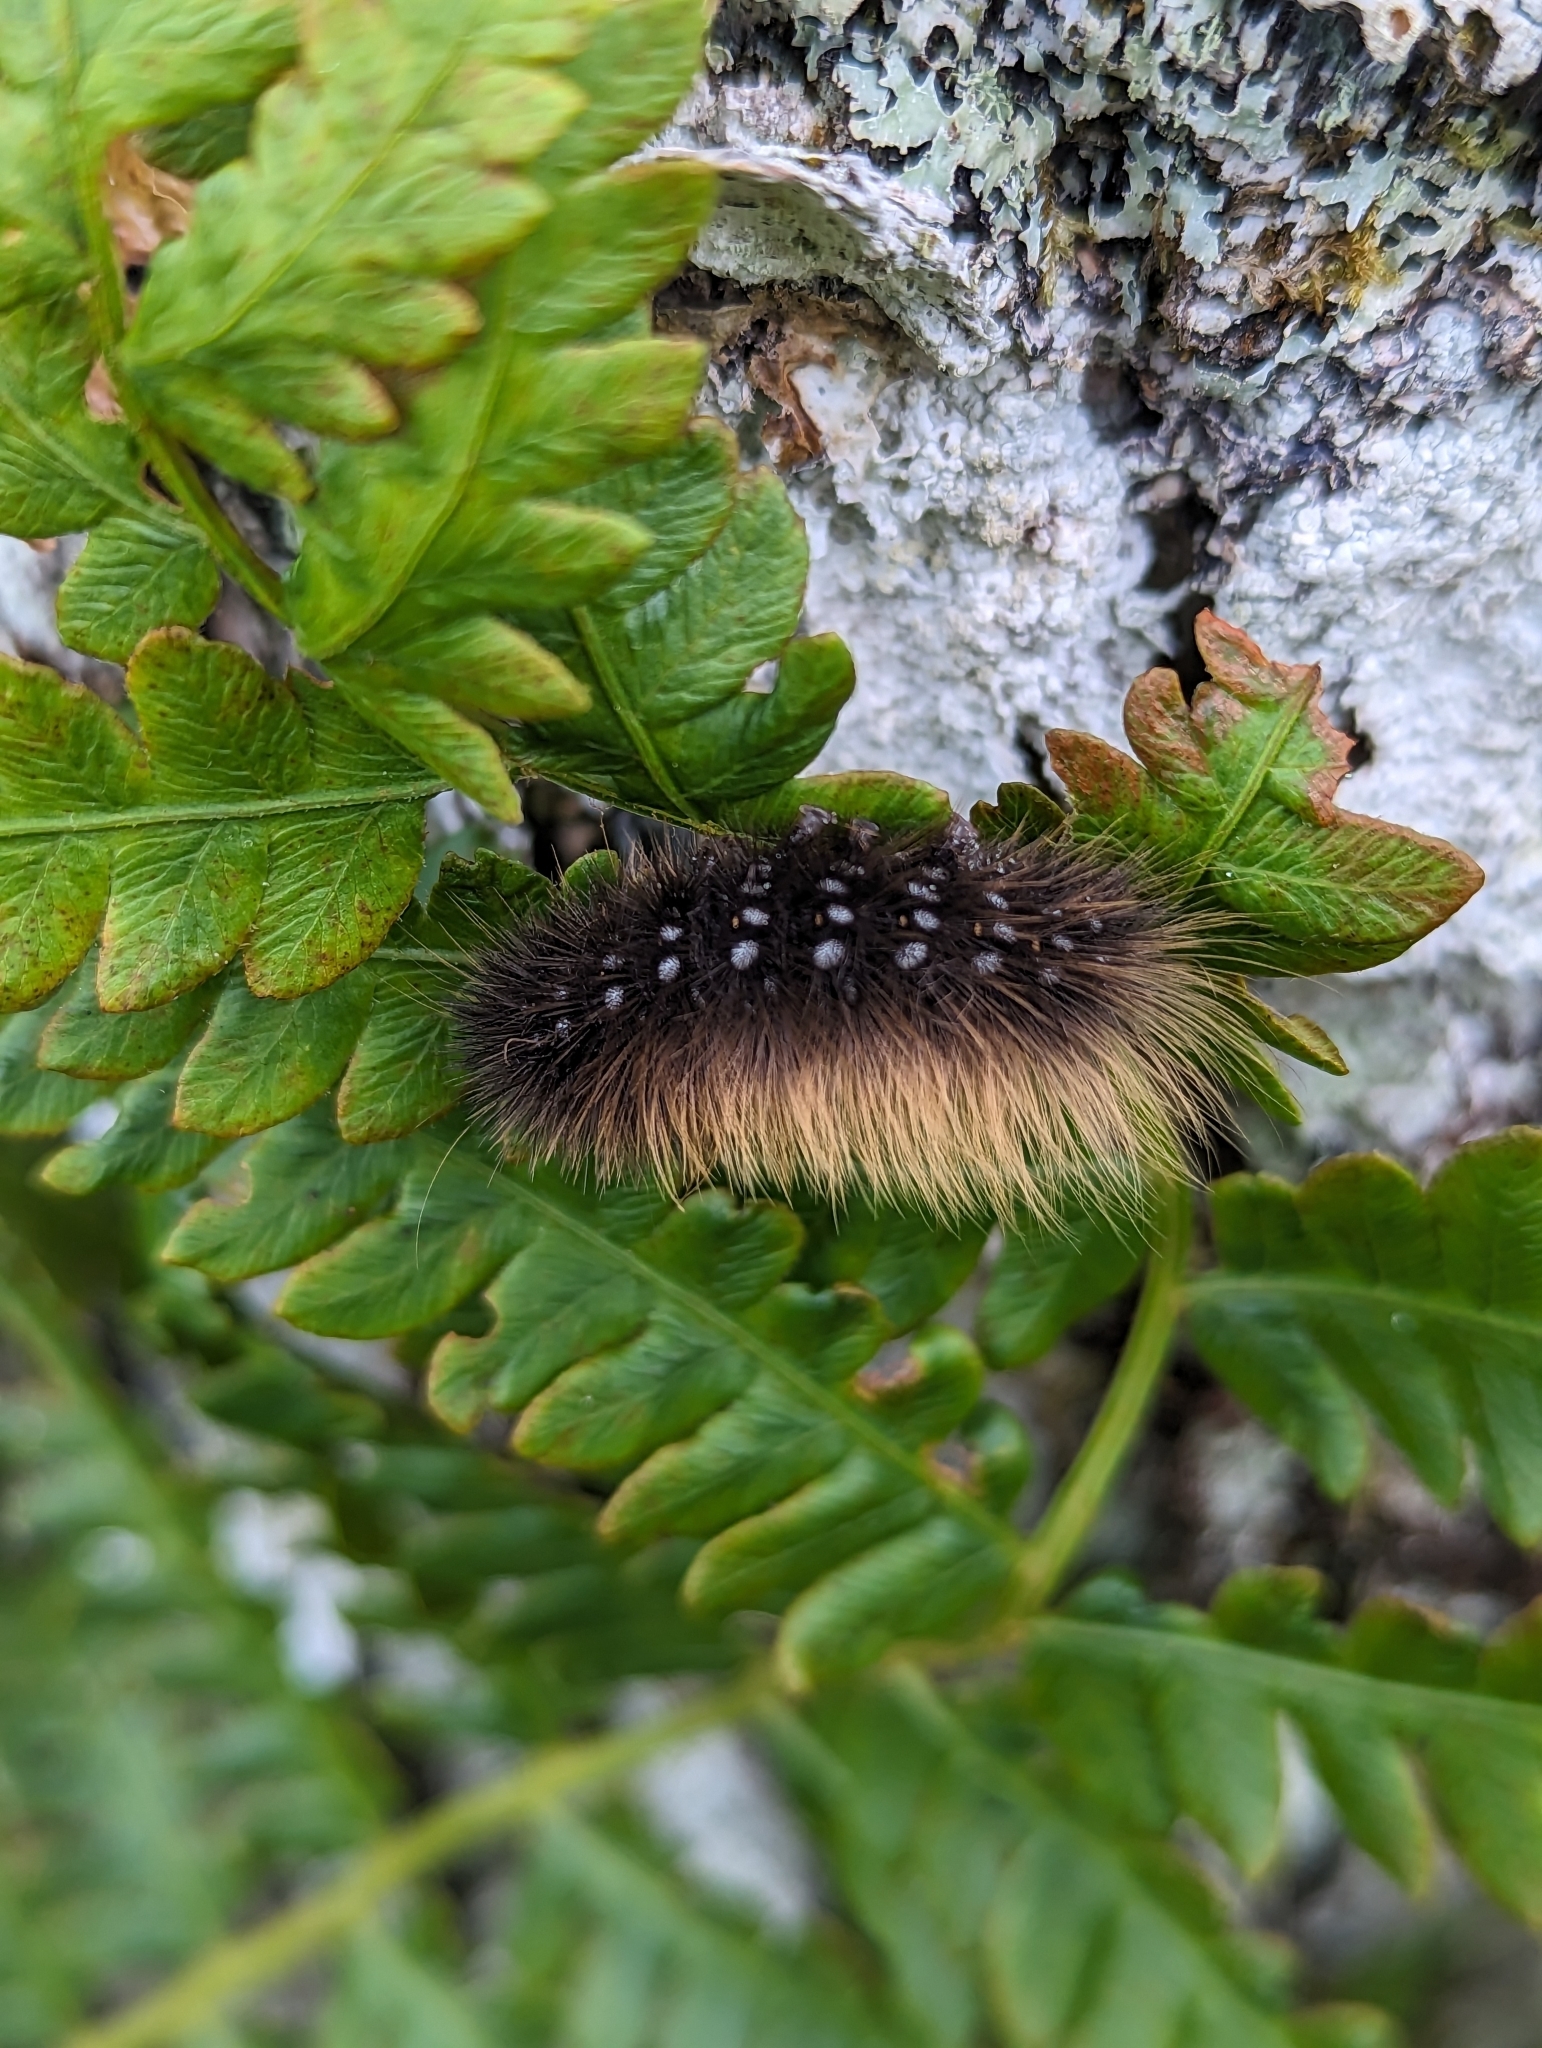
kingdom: Animalia
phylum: Arthropoda
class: Insecta
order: Lepidoptera
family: Erebidae
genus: Arctia
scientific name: Arctia parthenos
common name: St. lawrence tiger moth
